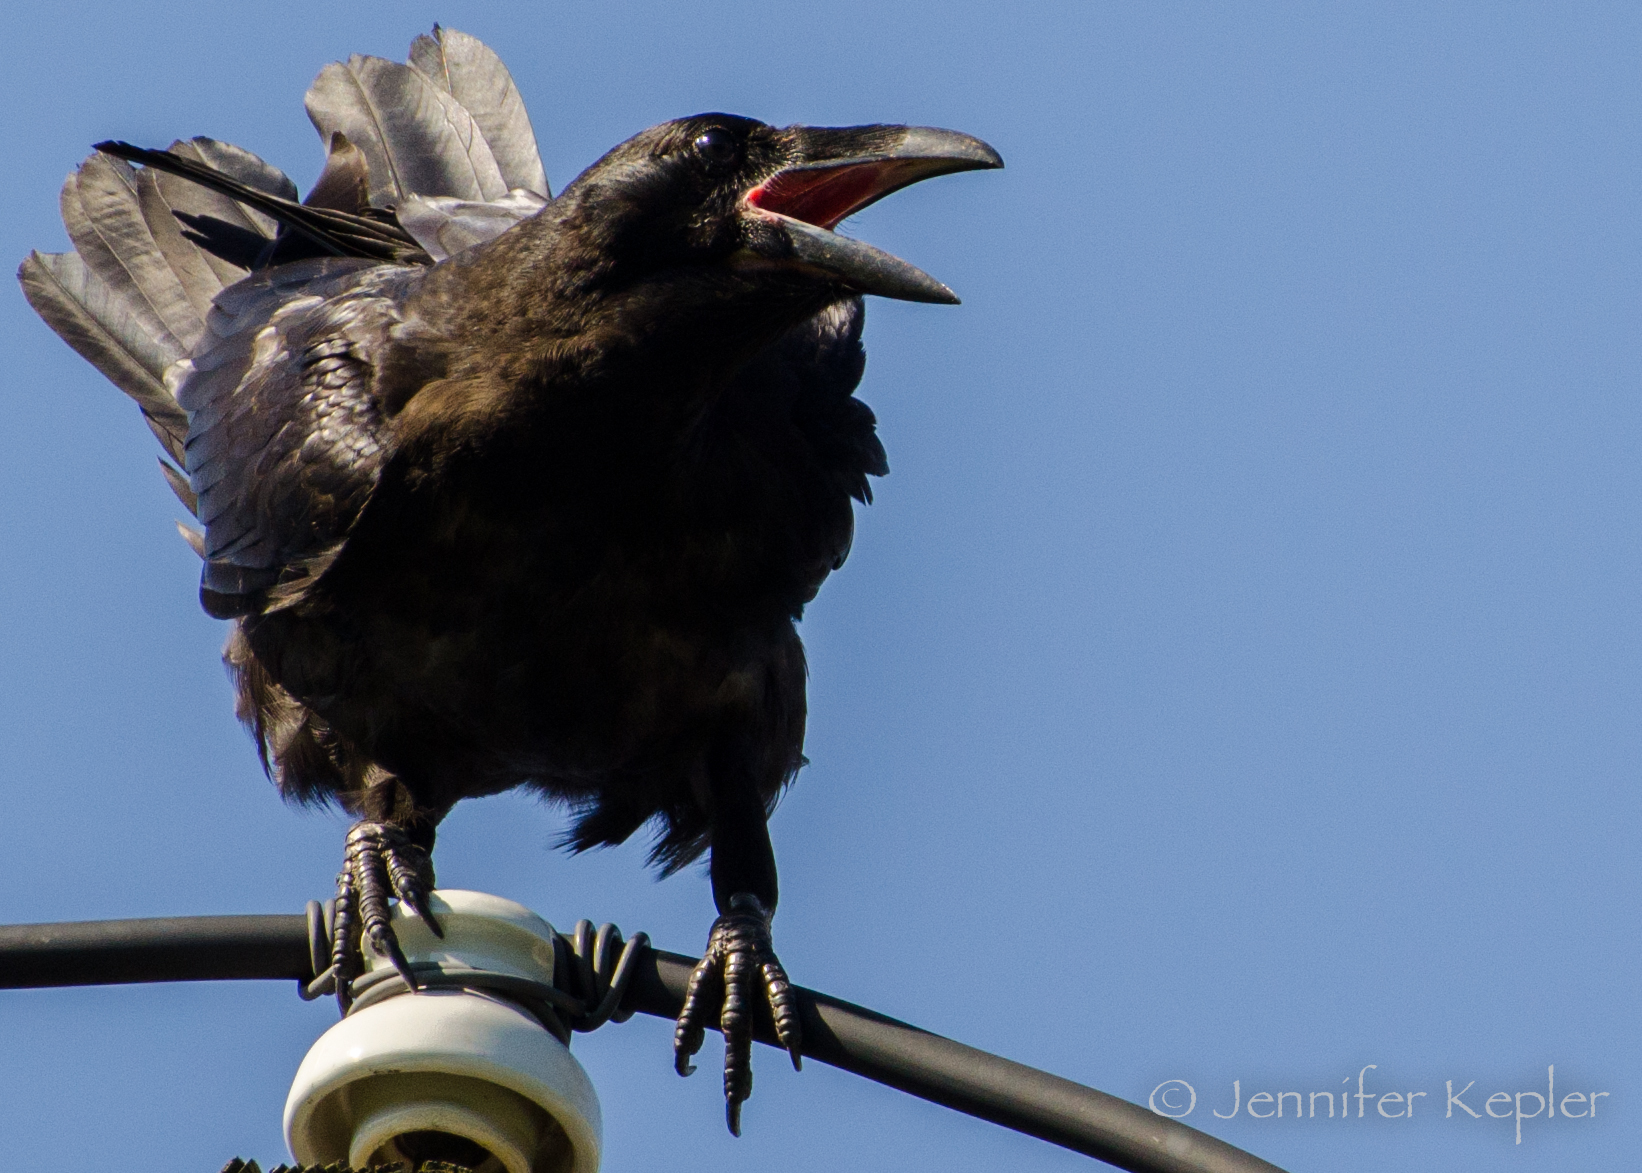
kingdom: Animalia
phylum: Chordata
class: Aves
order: Passeriformes
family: Corvidae
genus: Corvus
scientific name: Corvus corax
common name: Common raven
